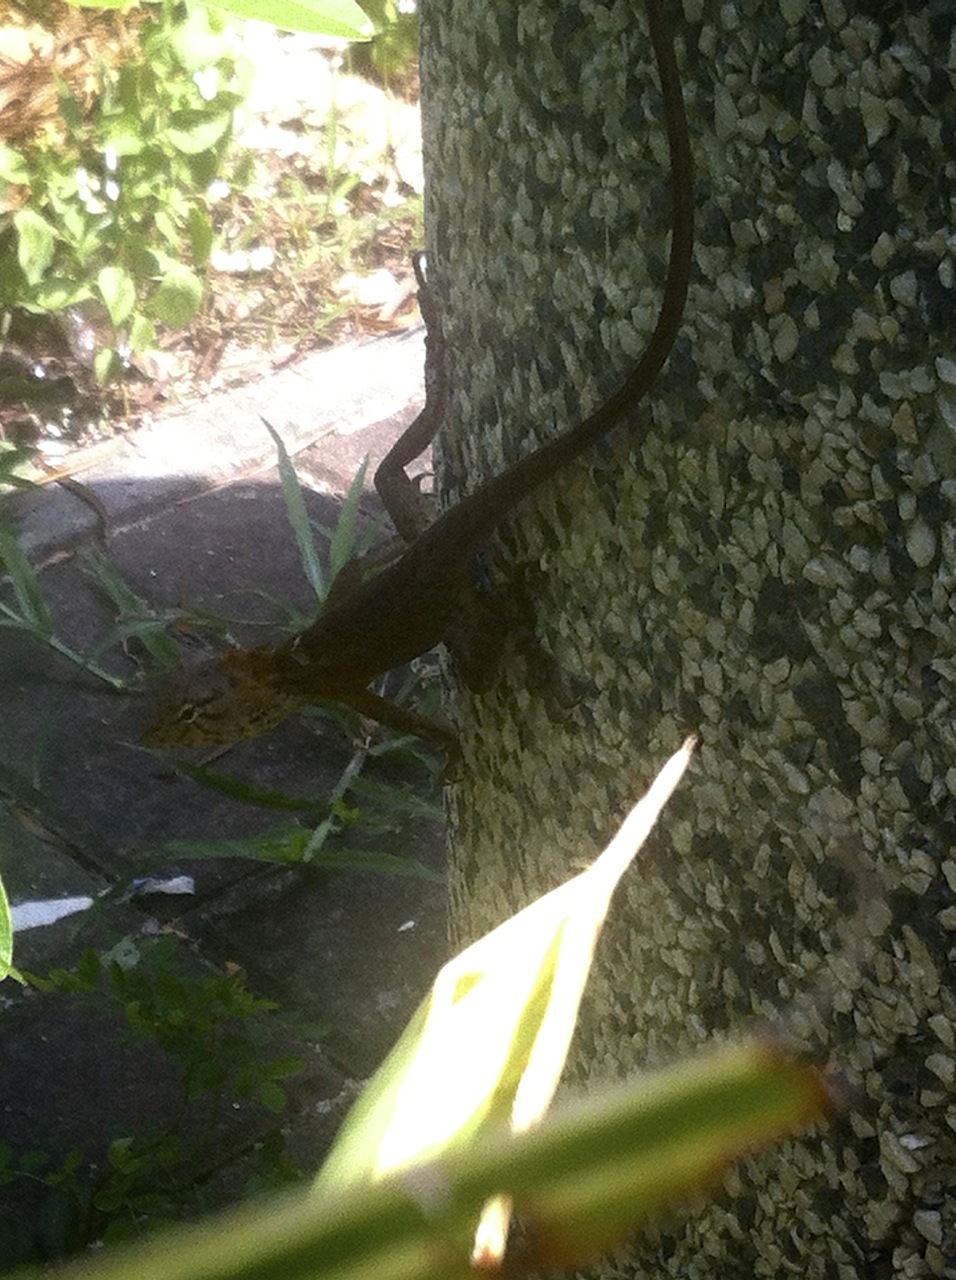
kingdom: Animalia
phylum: Chordata
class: Squamata
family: Agamidae
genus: Calotes
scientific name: Calotes versicolor
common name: Oriental garden lizard
